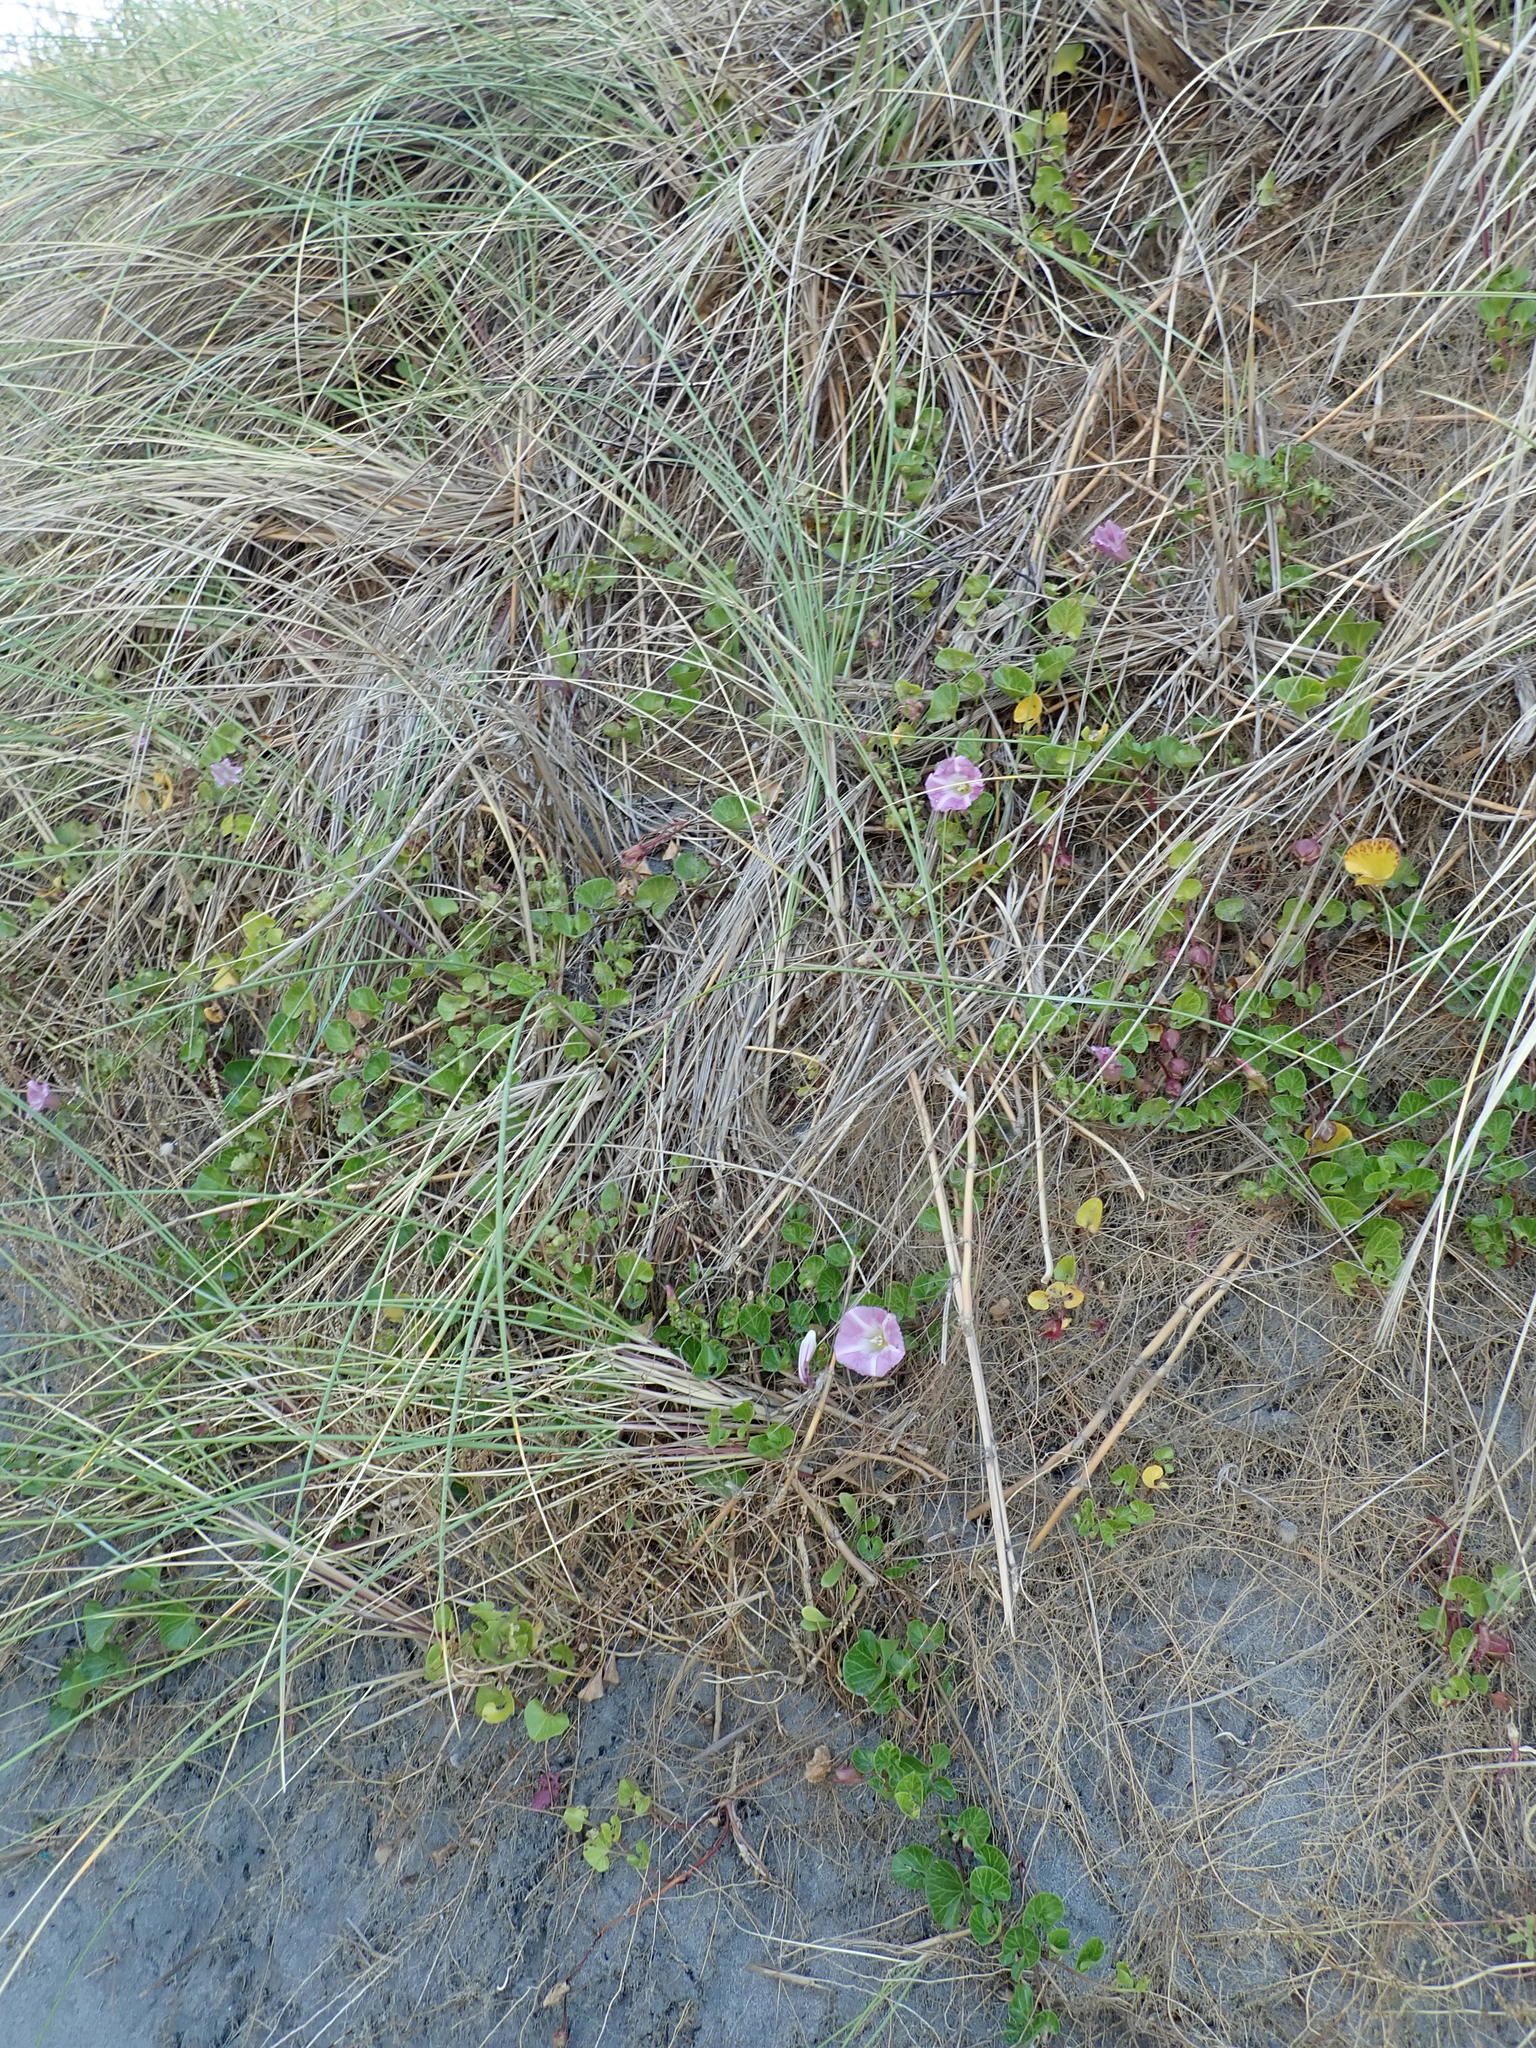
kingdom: Plantae
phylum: Tracheophyta
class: Magnoliopsida
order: Solanales
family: Convolvulaceae
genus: Calystegia
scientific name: Calystegia soldanella
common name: Sea bindweed
